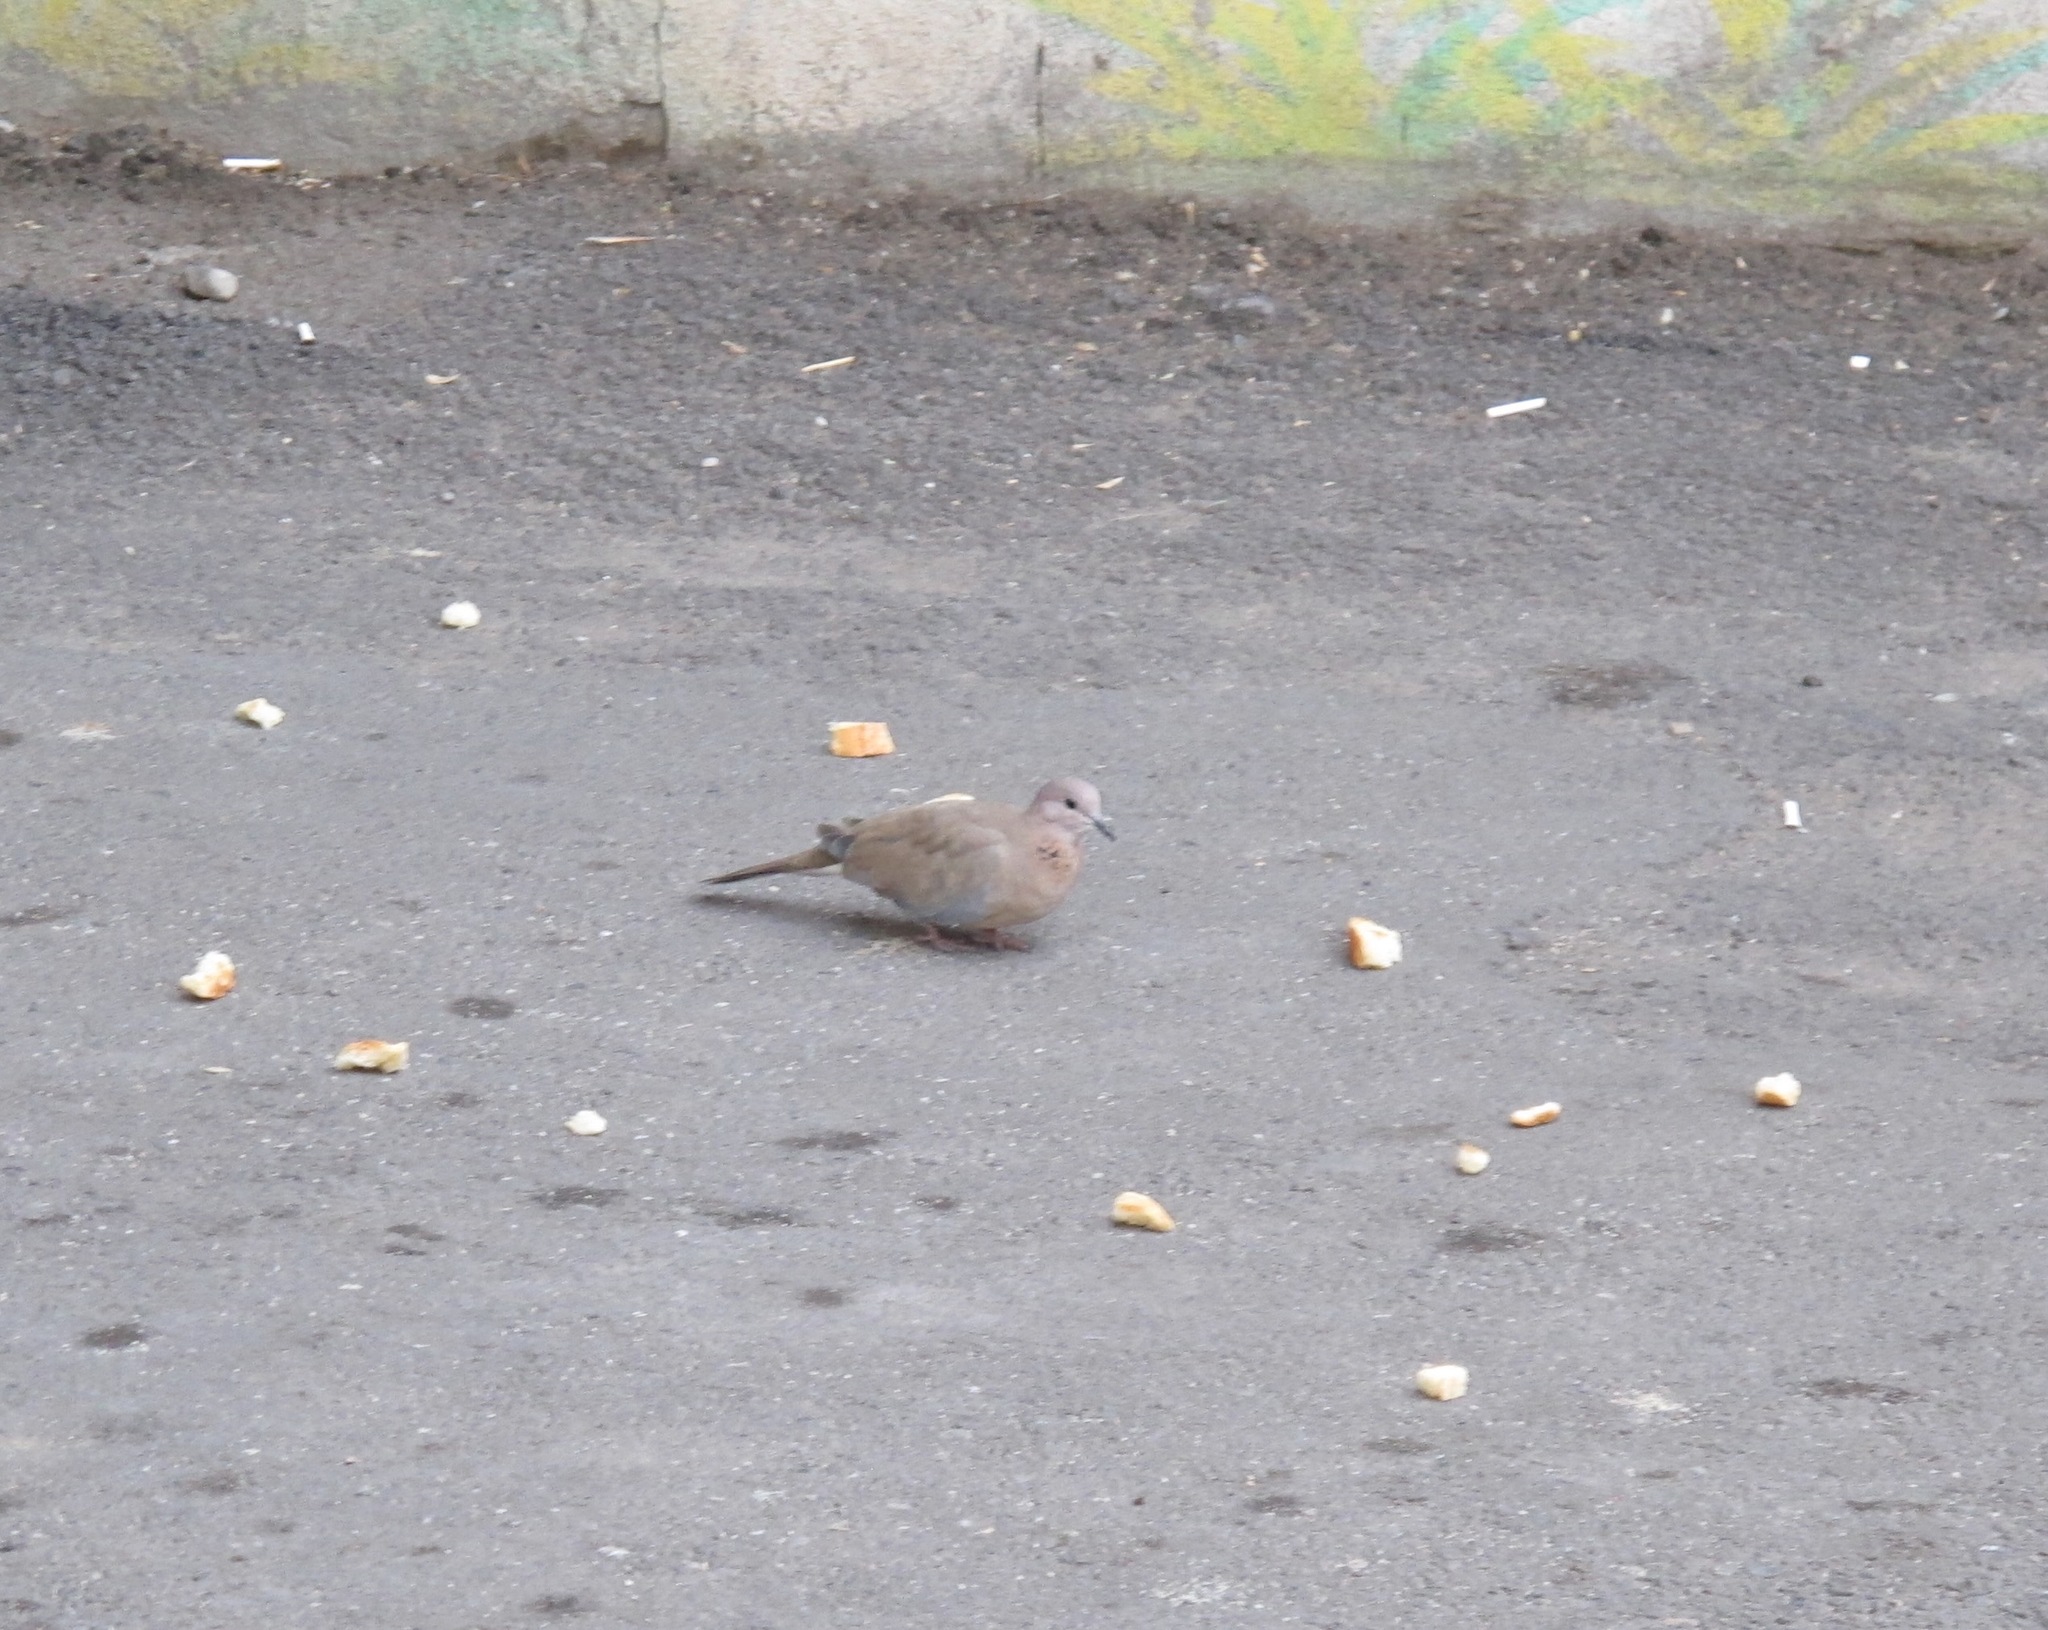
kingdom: Animalia
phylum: Chordata
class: Aves
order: Columbiformes
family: Columbidae
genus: Spilopelia
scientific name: Spilopelia senegalensis
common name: Laughing dove
